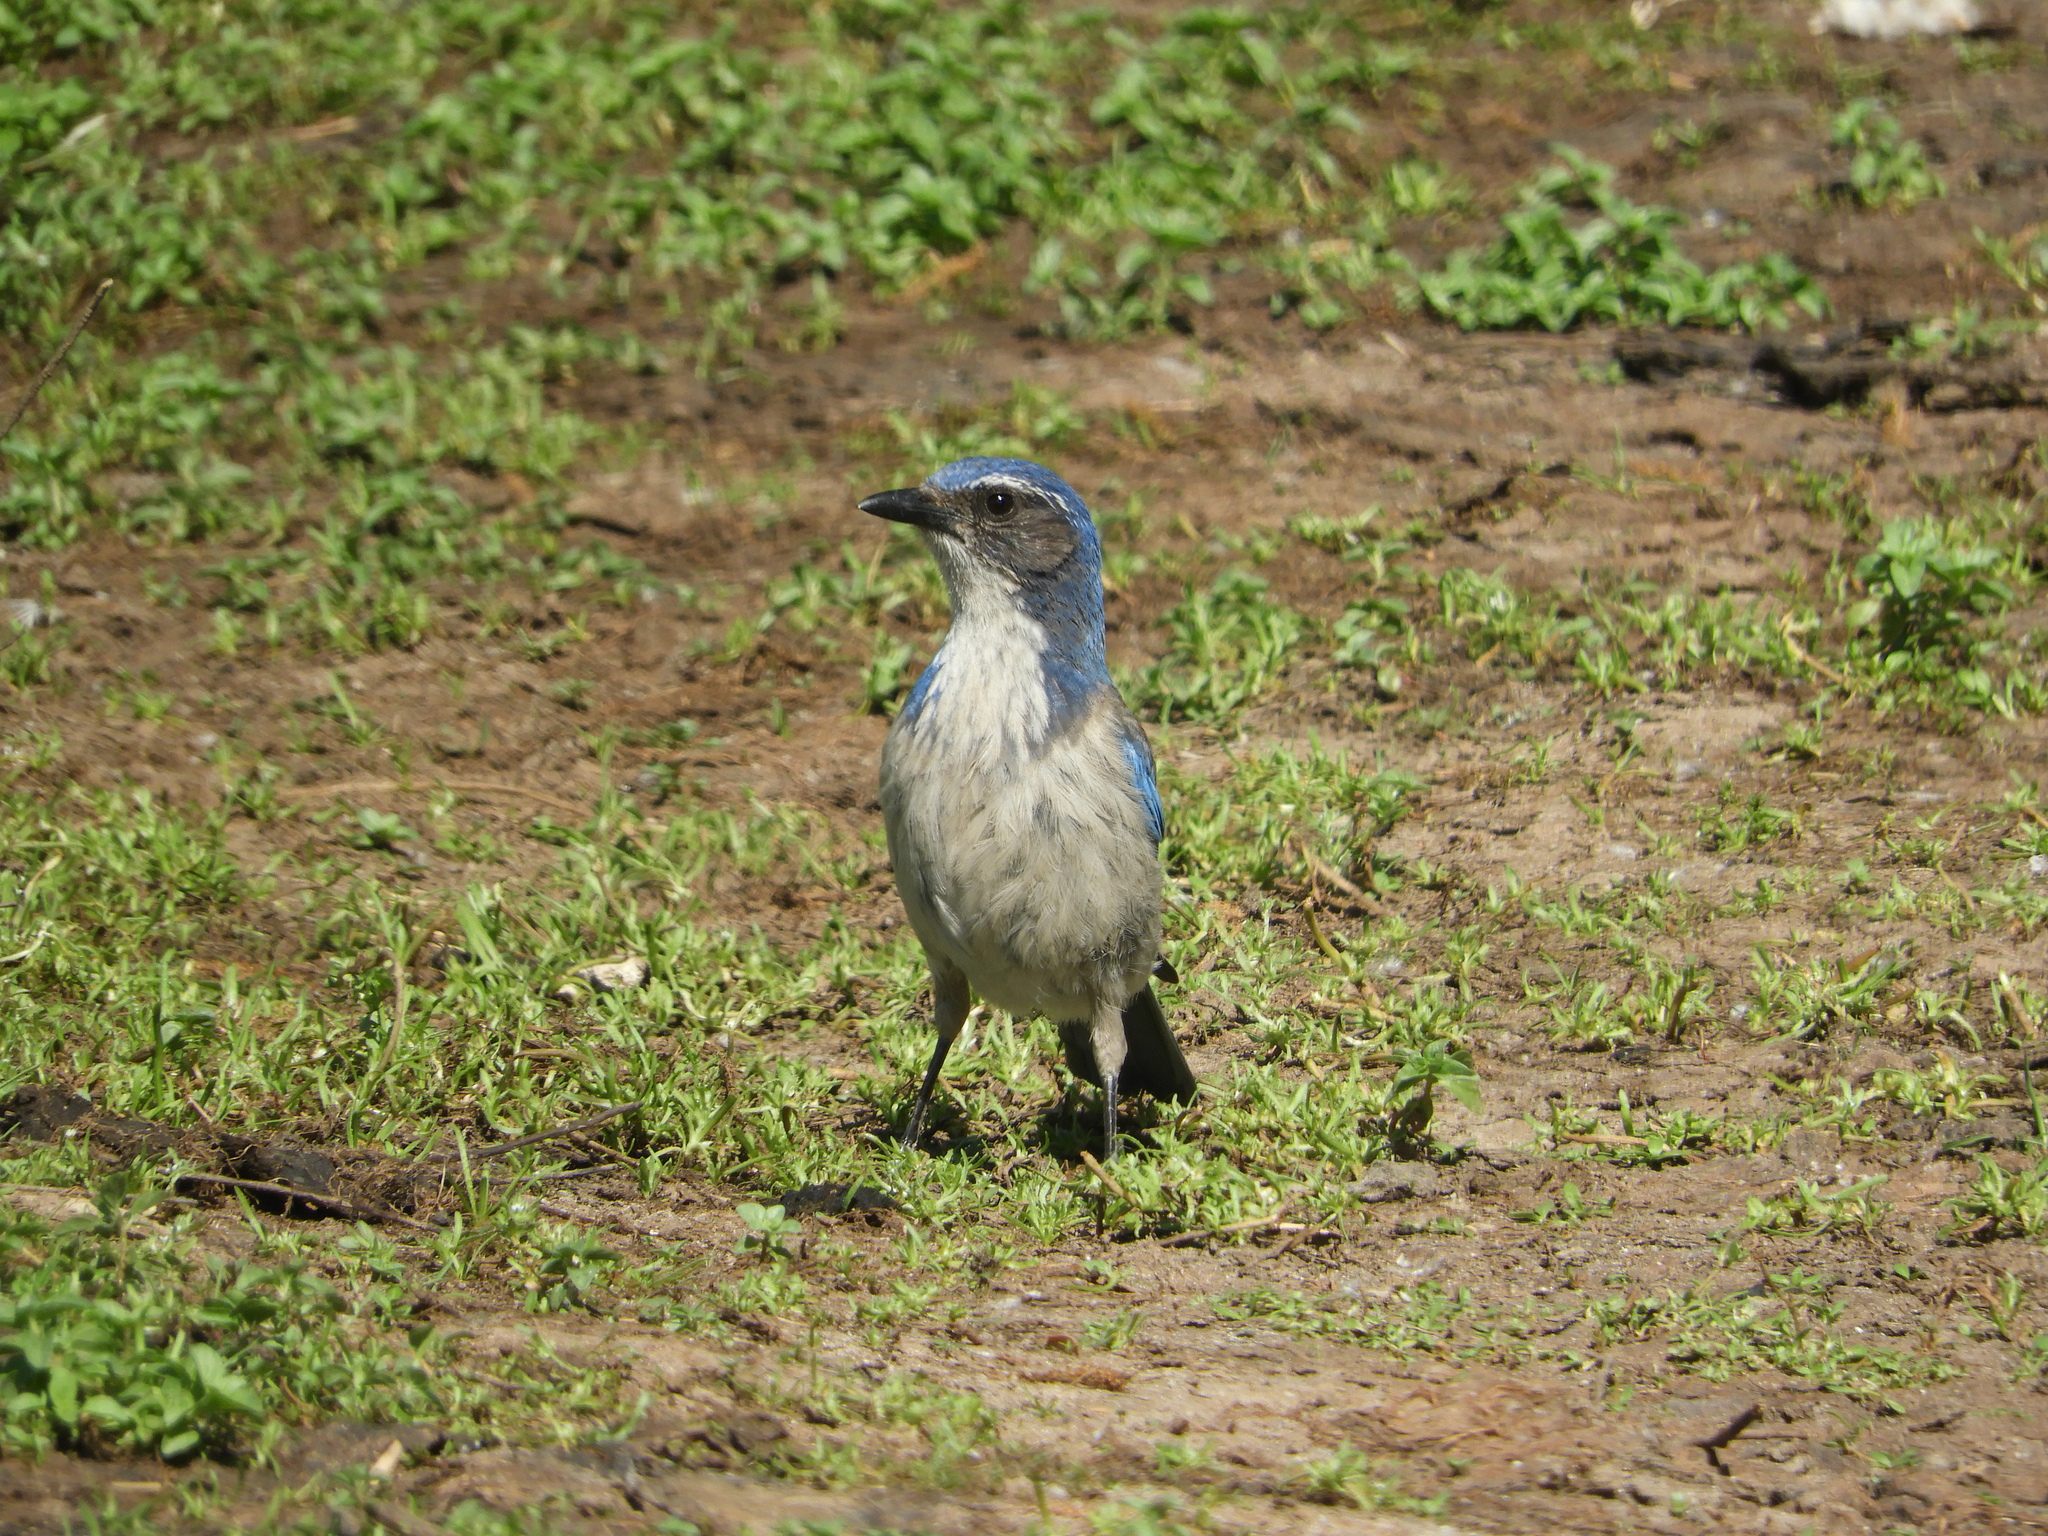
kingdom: Animalia
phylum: Chordata
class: Aves
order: Passeriformes
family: Corvidae
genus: Aphelocoma
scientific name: Aphelocoma californica
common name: California scrub-jay
